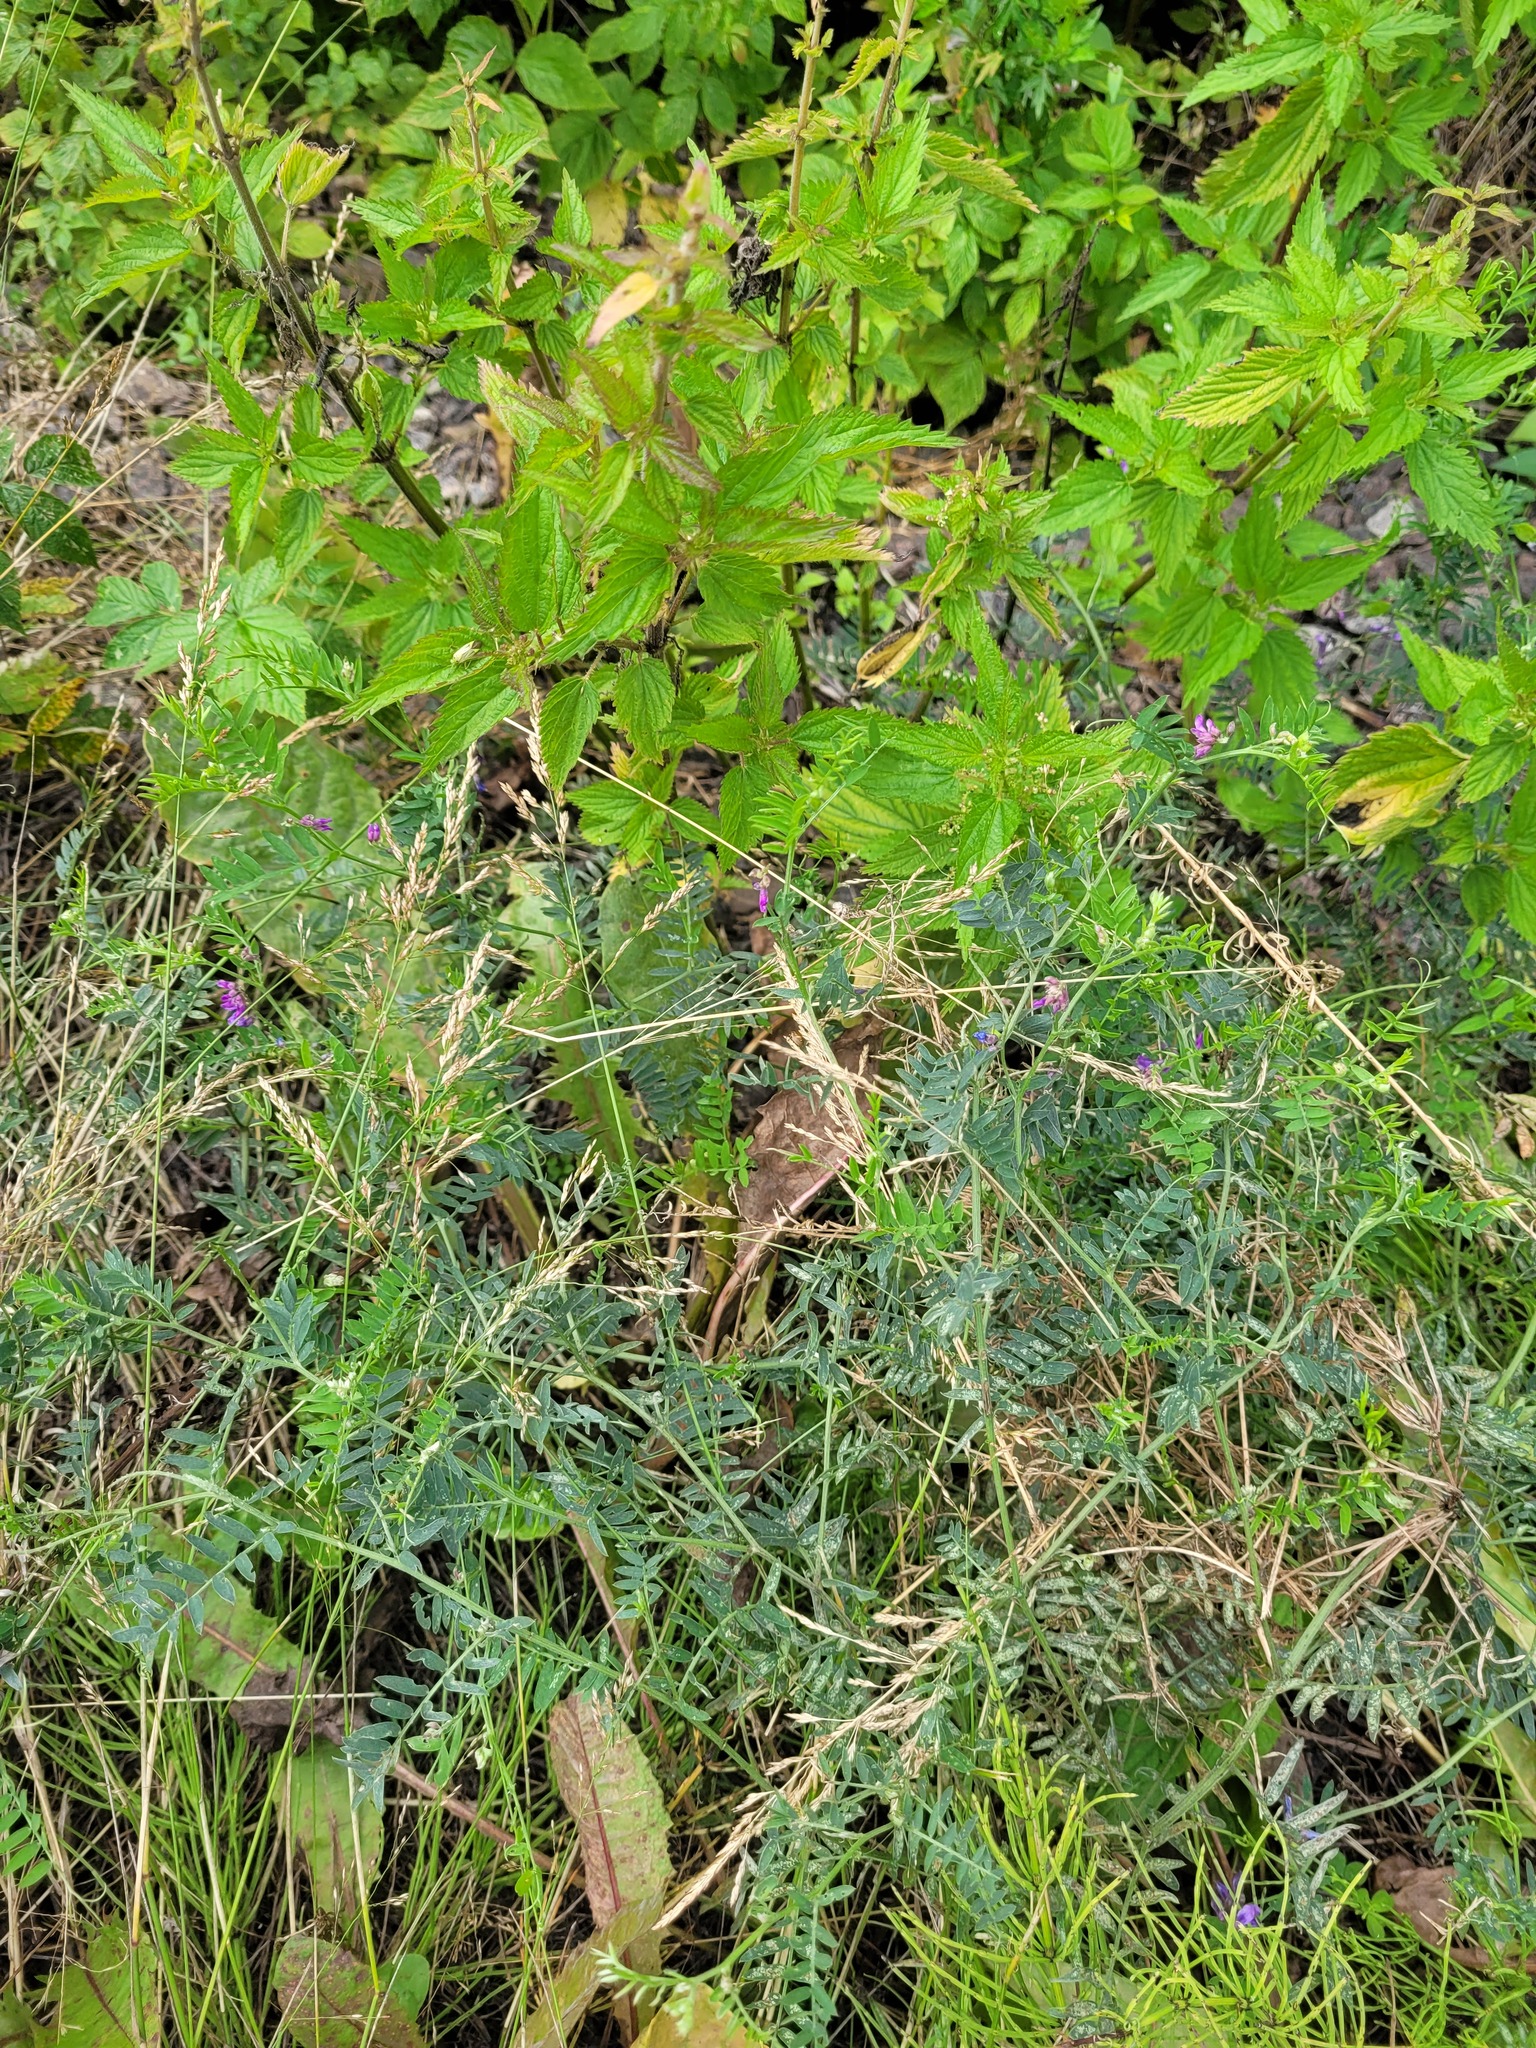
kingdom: Plantae
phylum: Tracheophyta
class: Magnoliopsida
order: Fabales
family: Fabaceae
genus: Vicia
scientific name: Vicia cracca
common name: Bird vetch
